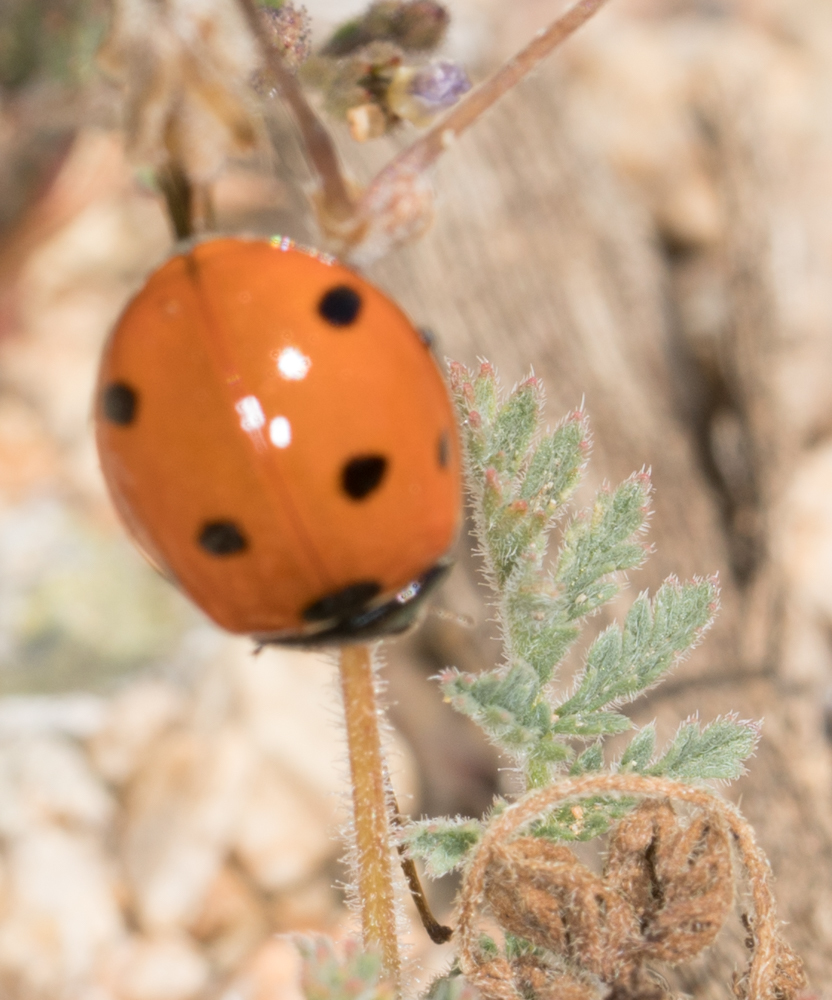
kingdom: Animalia
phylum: Arthropoda
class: Insecta
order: Coleoptera
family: Coccinellidae
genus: Coccinella
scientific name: Coccinella septempunctata
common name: Sevenspotted lady beetle
